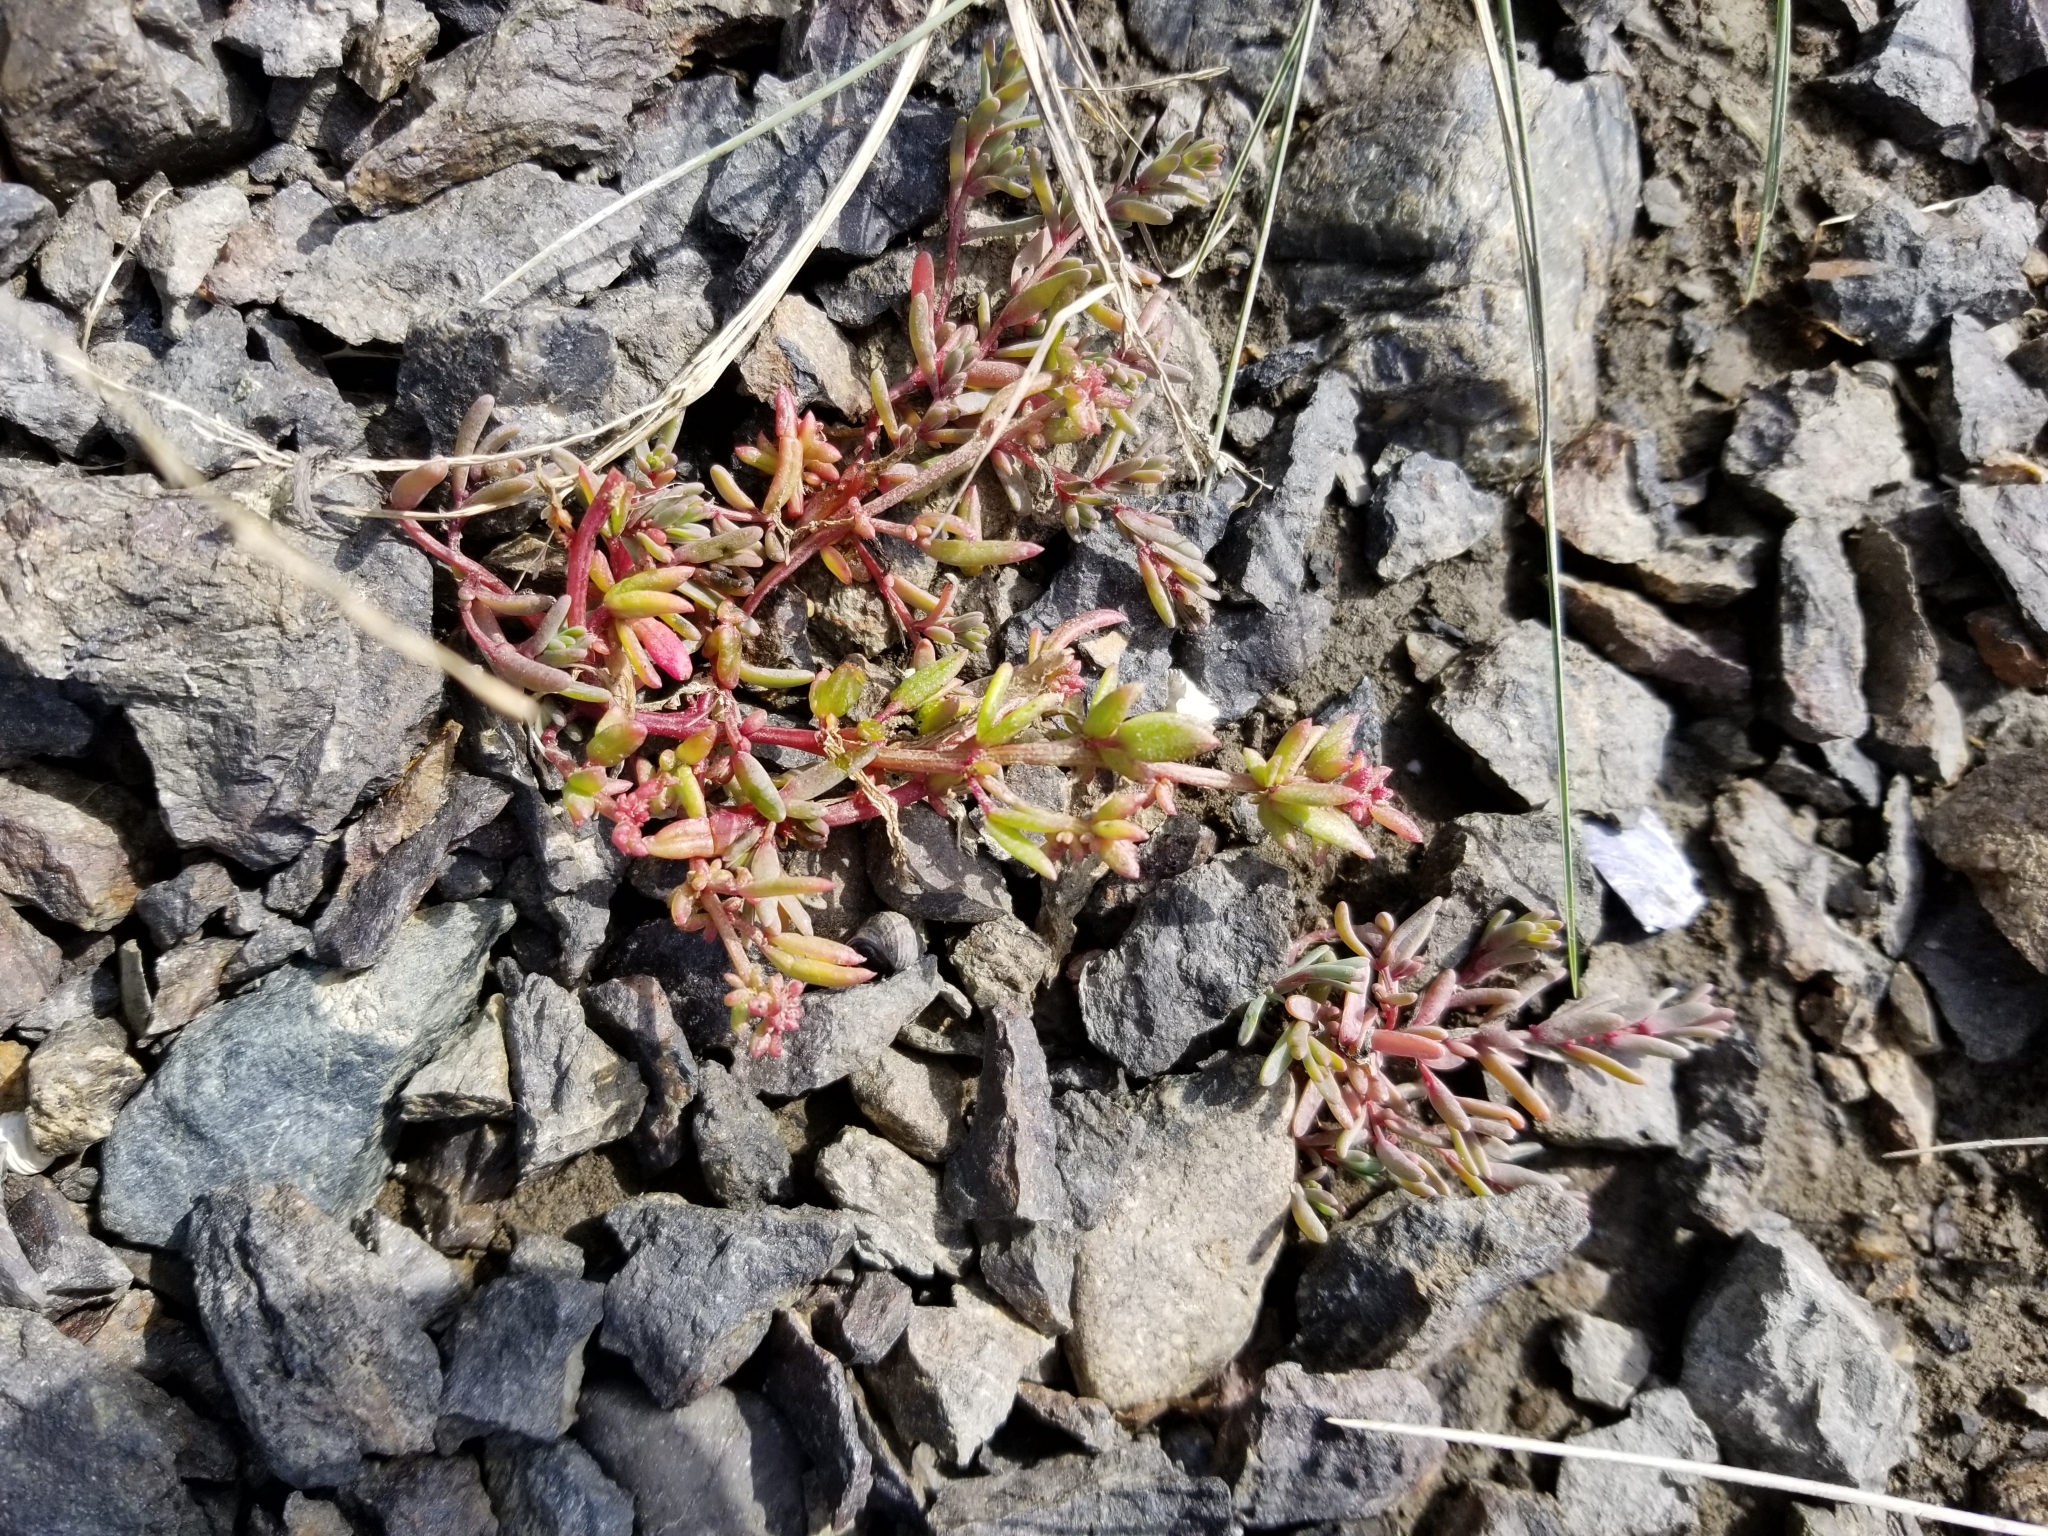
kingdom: Plantae
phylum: Tracheophyta
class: Magnoliopsida
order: Caryophyllales
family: Amaranthaceae
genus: Suaeda
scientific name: Suaeda calceoliformis
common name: Pursh's seepweed
